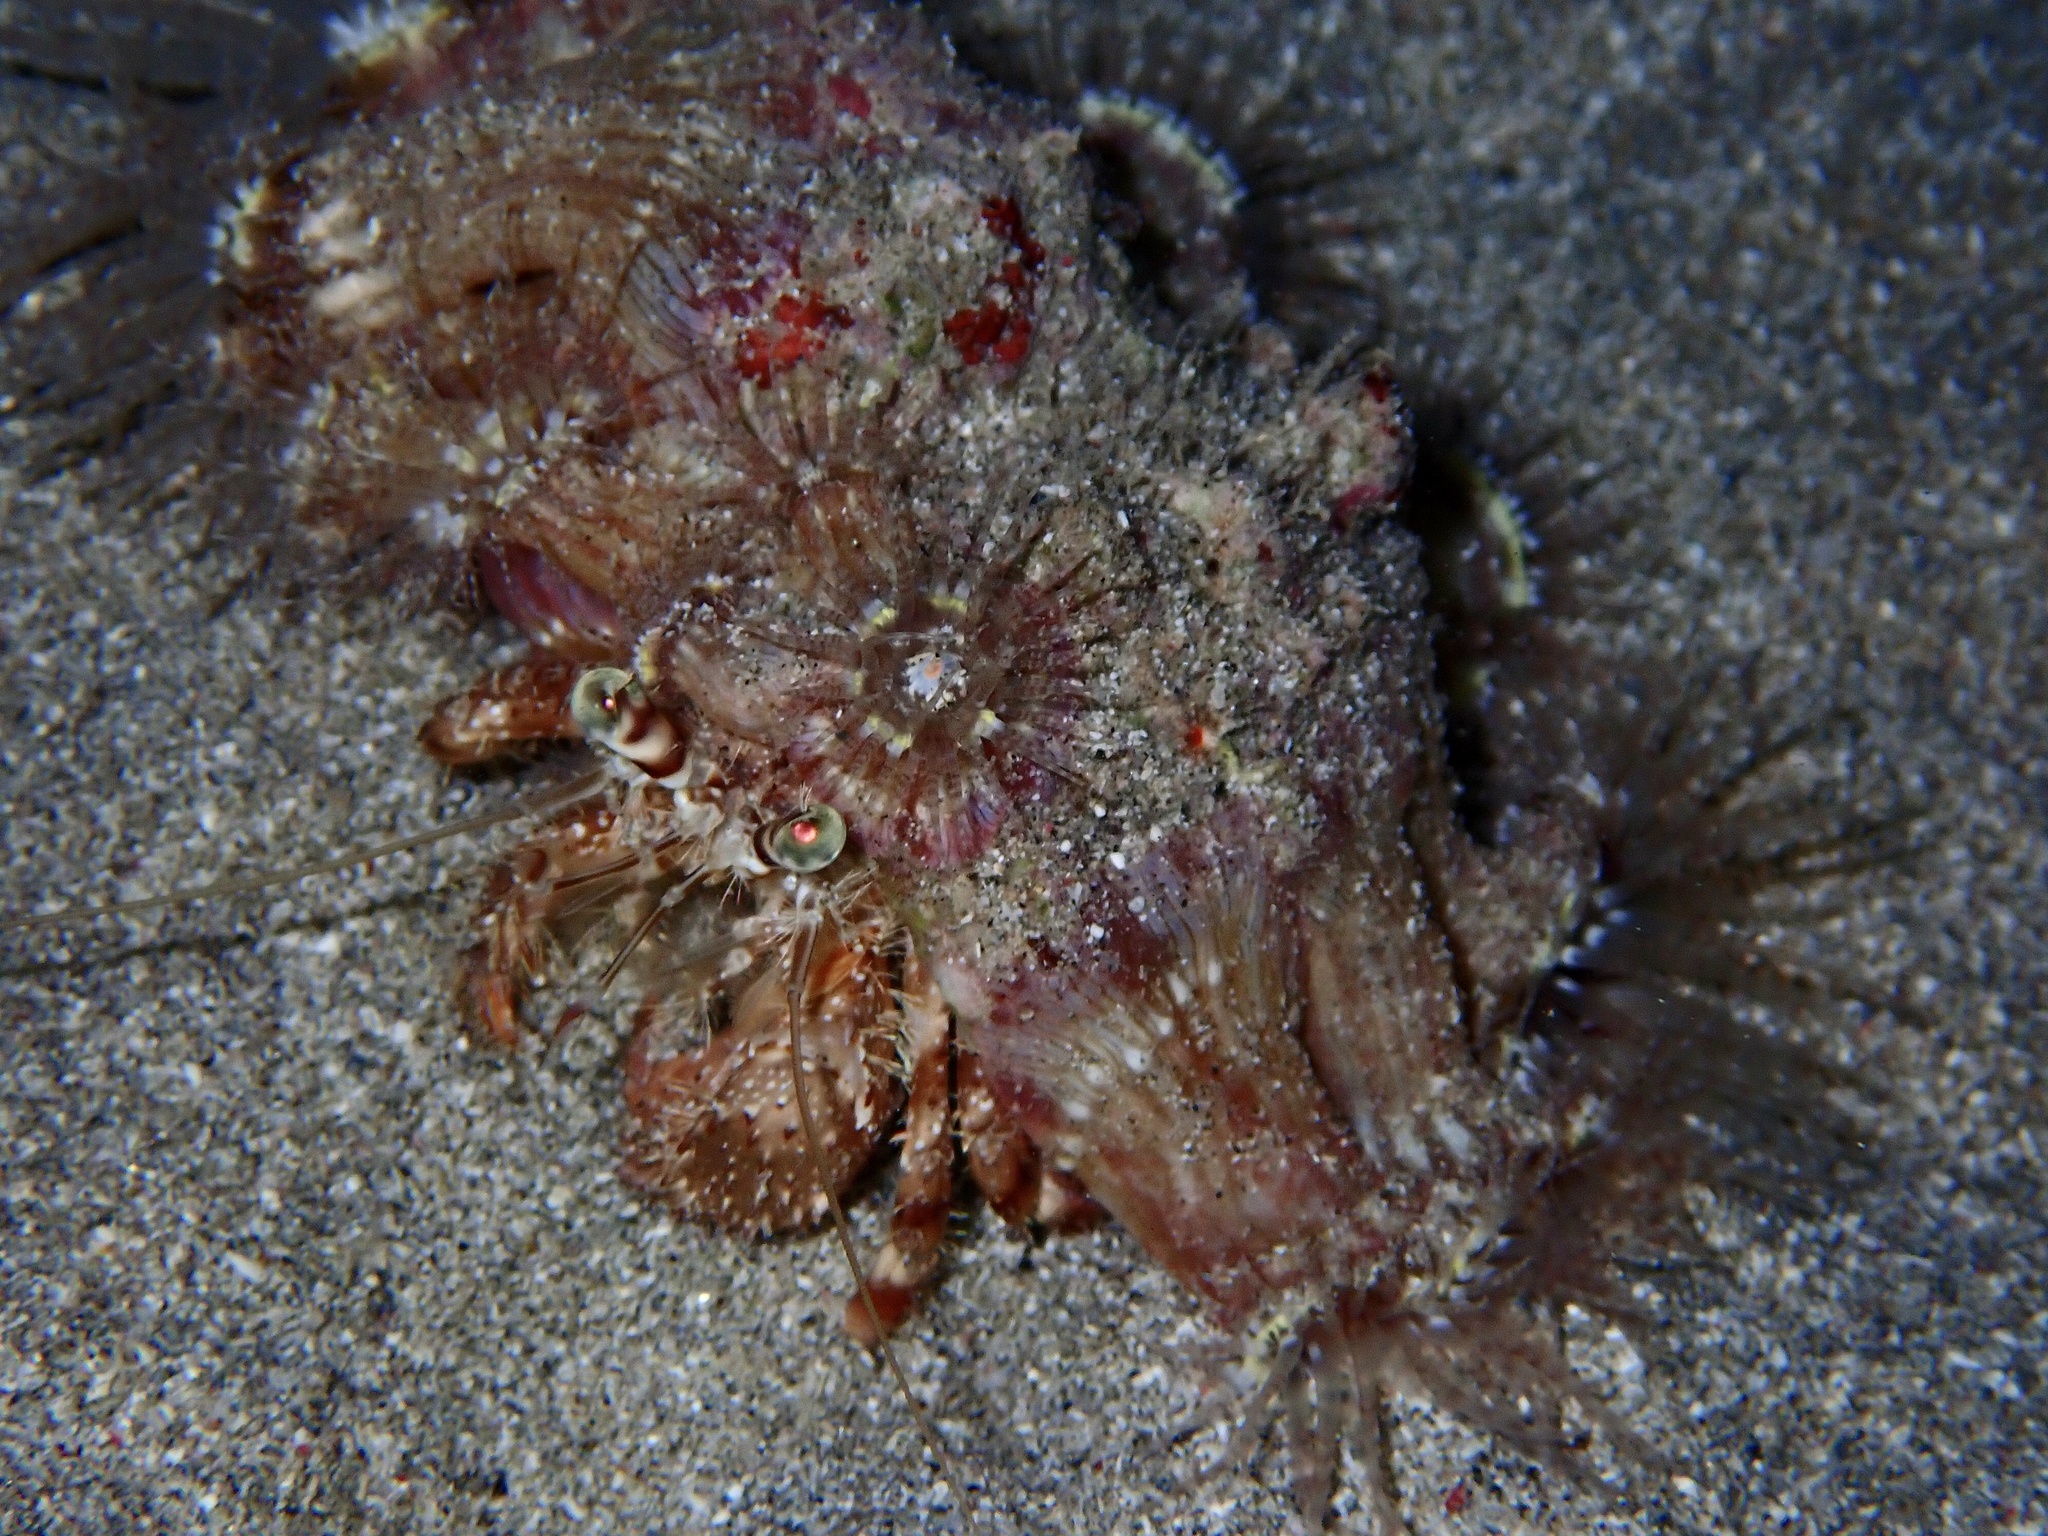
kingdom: Animalia
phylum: Arthropoda
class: Malacostraca
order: Decapoda
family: Diogenidae
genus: Dardanus
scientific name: Dardanus tinctor
